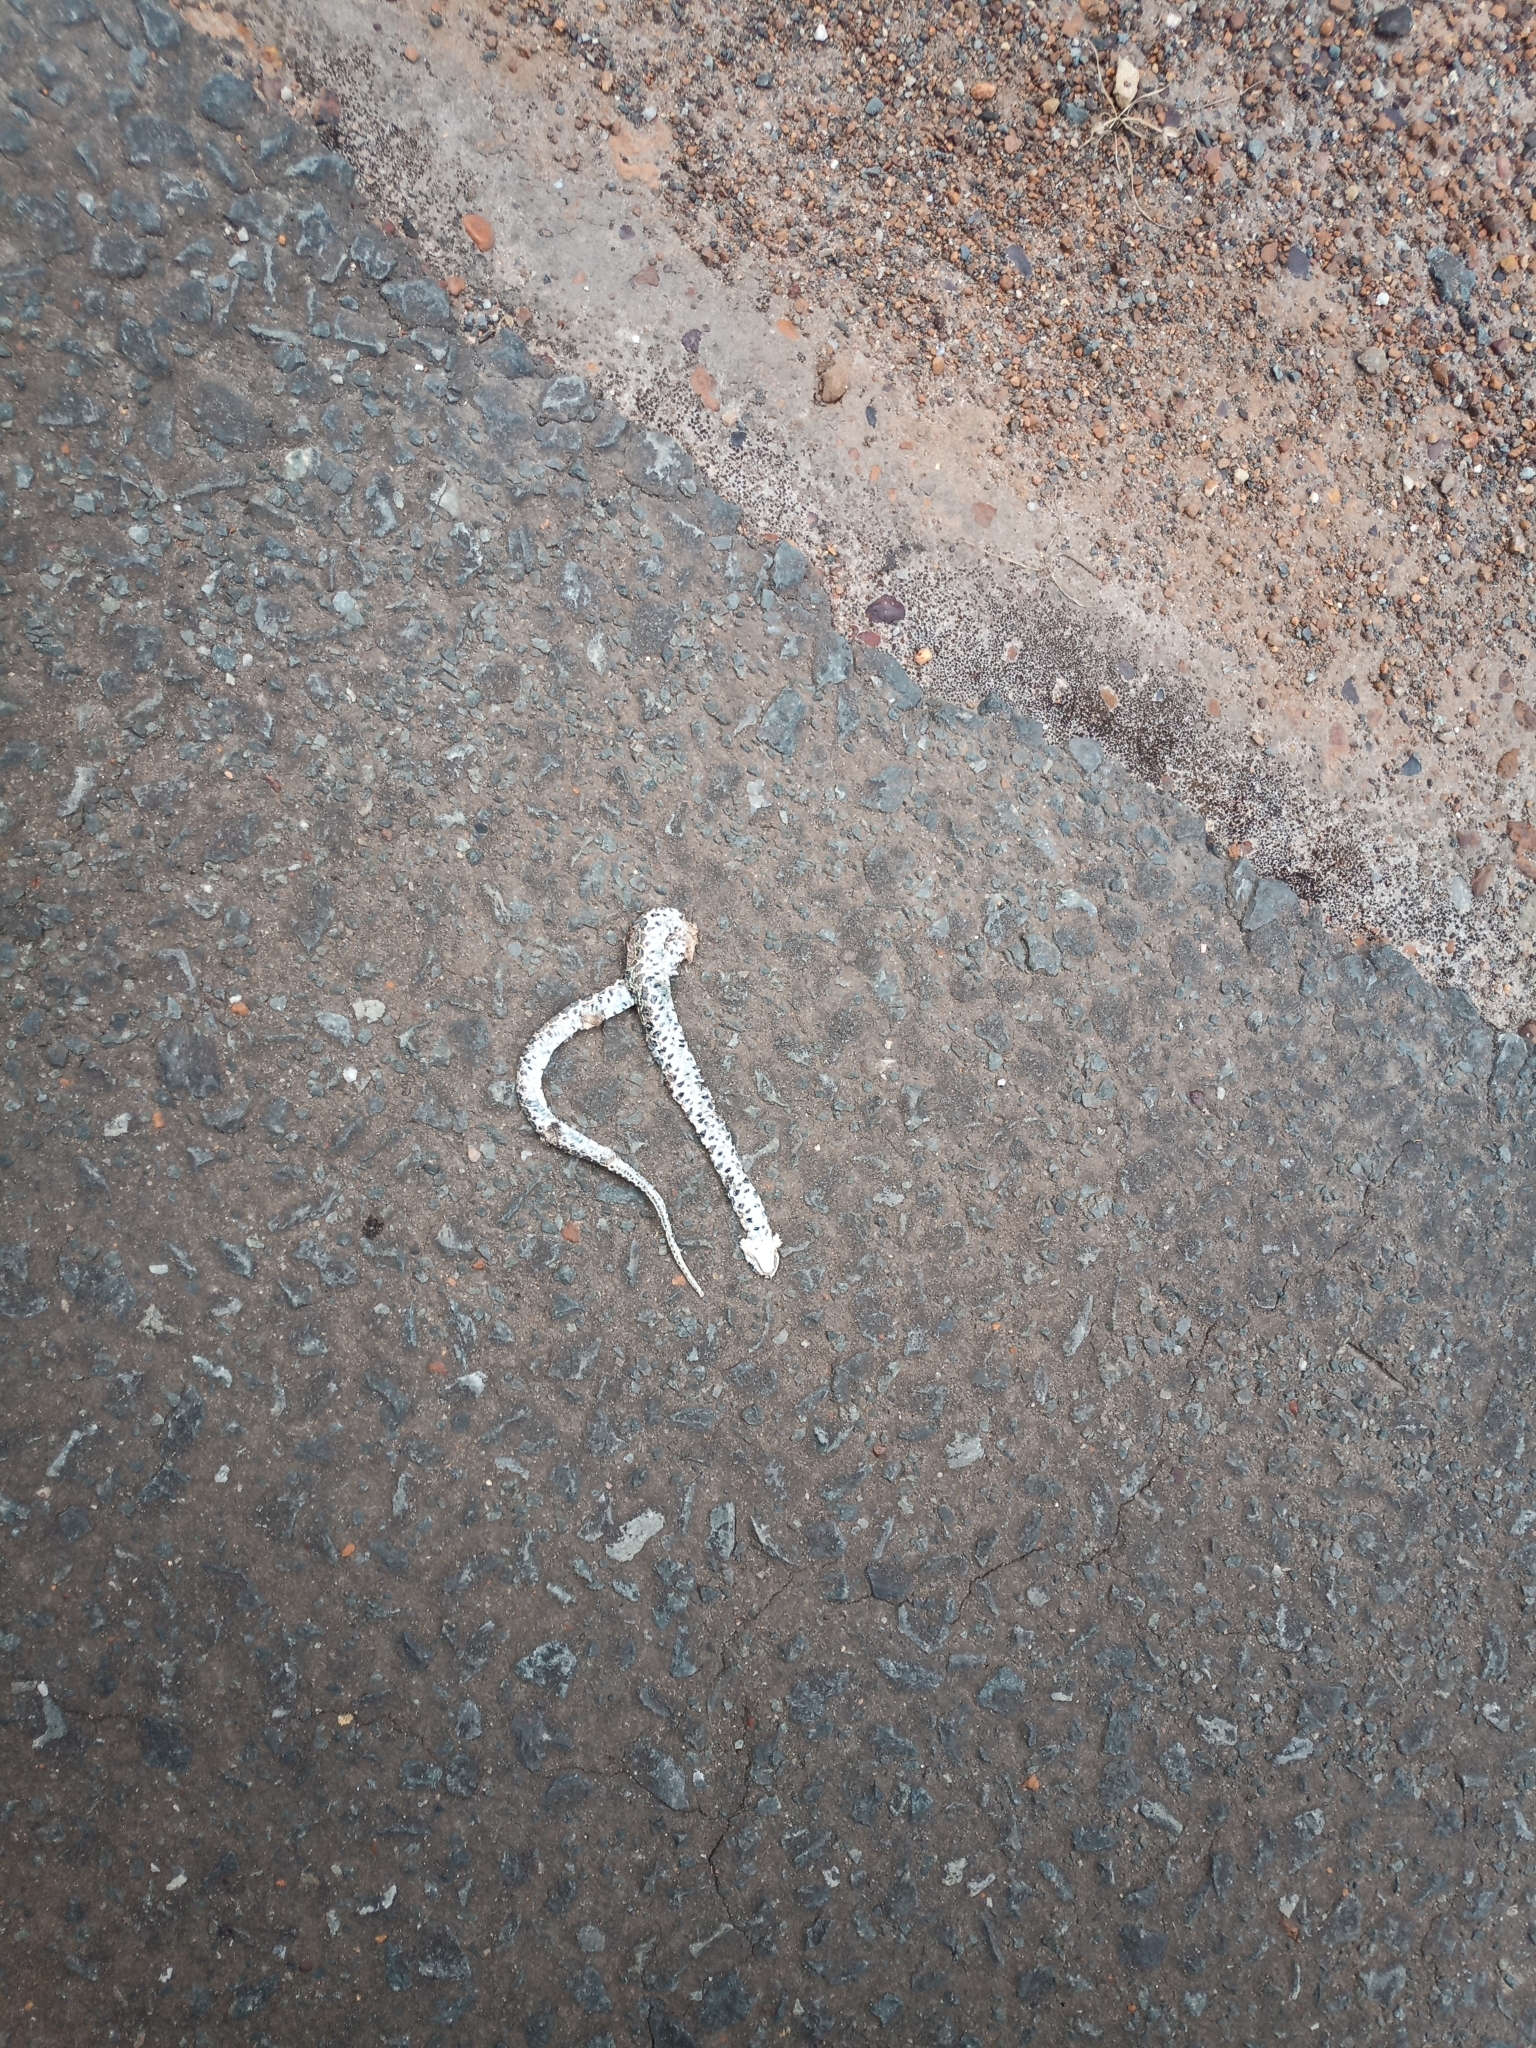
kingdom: Animalia
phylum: Chordata
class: Squamata
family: Psammophiidae
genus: Psammophylax
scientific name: Psammophylax rhombeatus
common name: Rhombic skaapsteker
